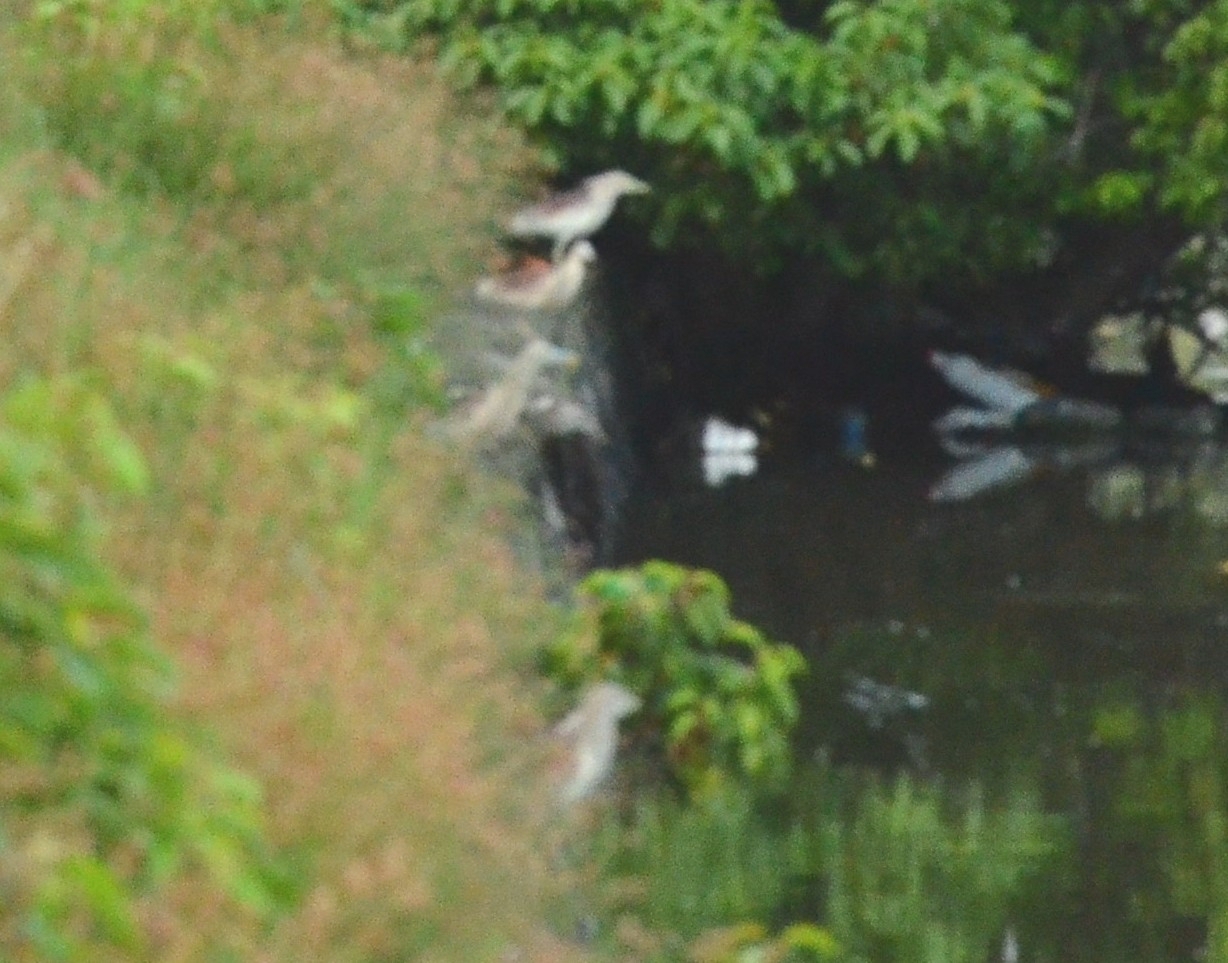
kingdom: Animalia
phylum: Chordata
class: Aves
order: Pelecaniformes
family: Ardeidae
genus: Ardeola
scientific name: Ardeola grayii
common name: Indian pond heron
